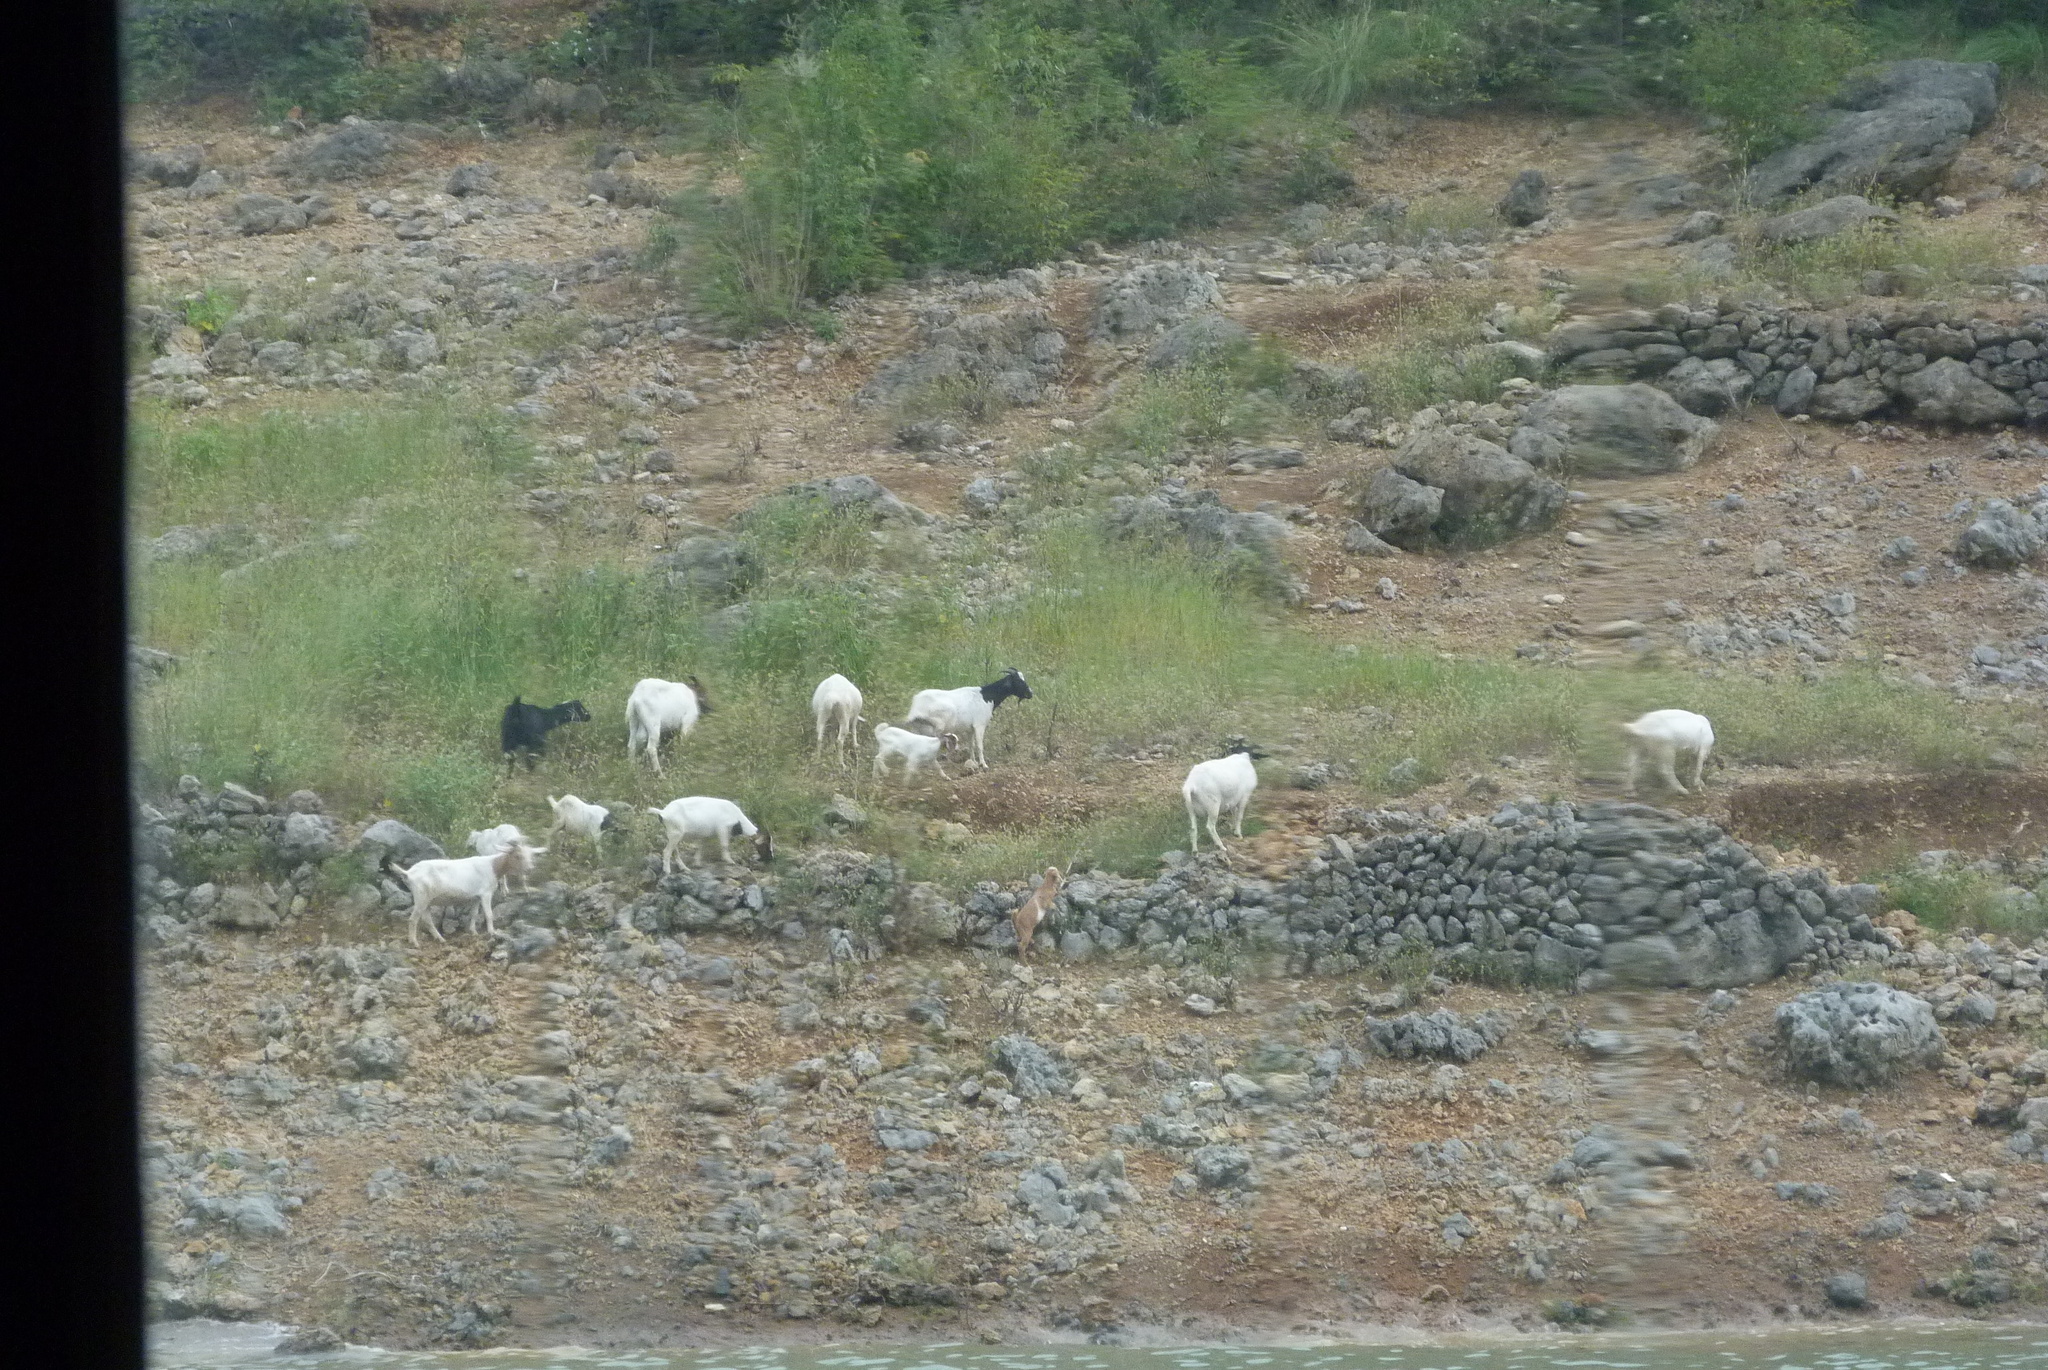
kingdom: Animalia
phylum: Chordata
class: Mammalia
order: Artiodactyla
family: Bovidae
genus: Capra
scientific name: Capra hircus
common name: Domestic goat
